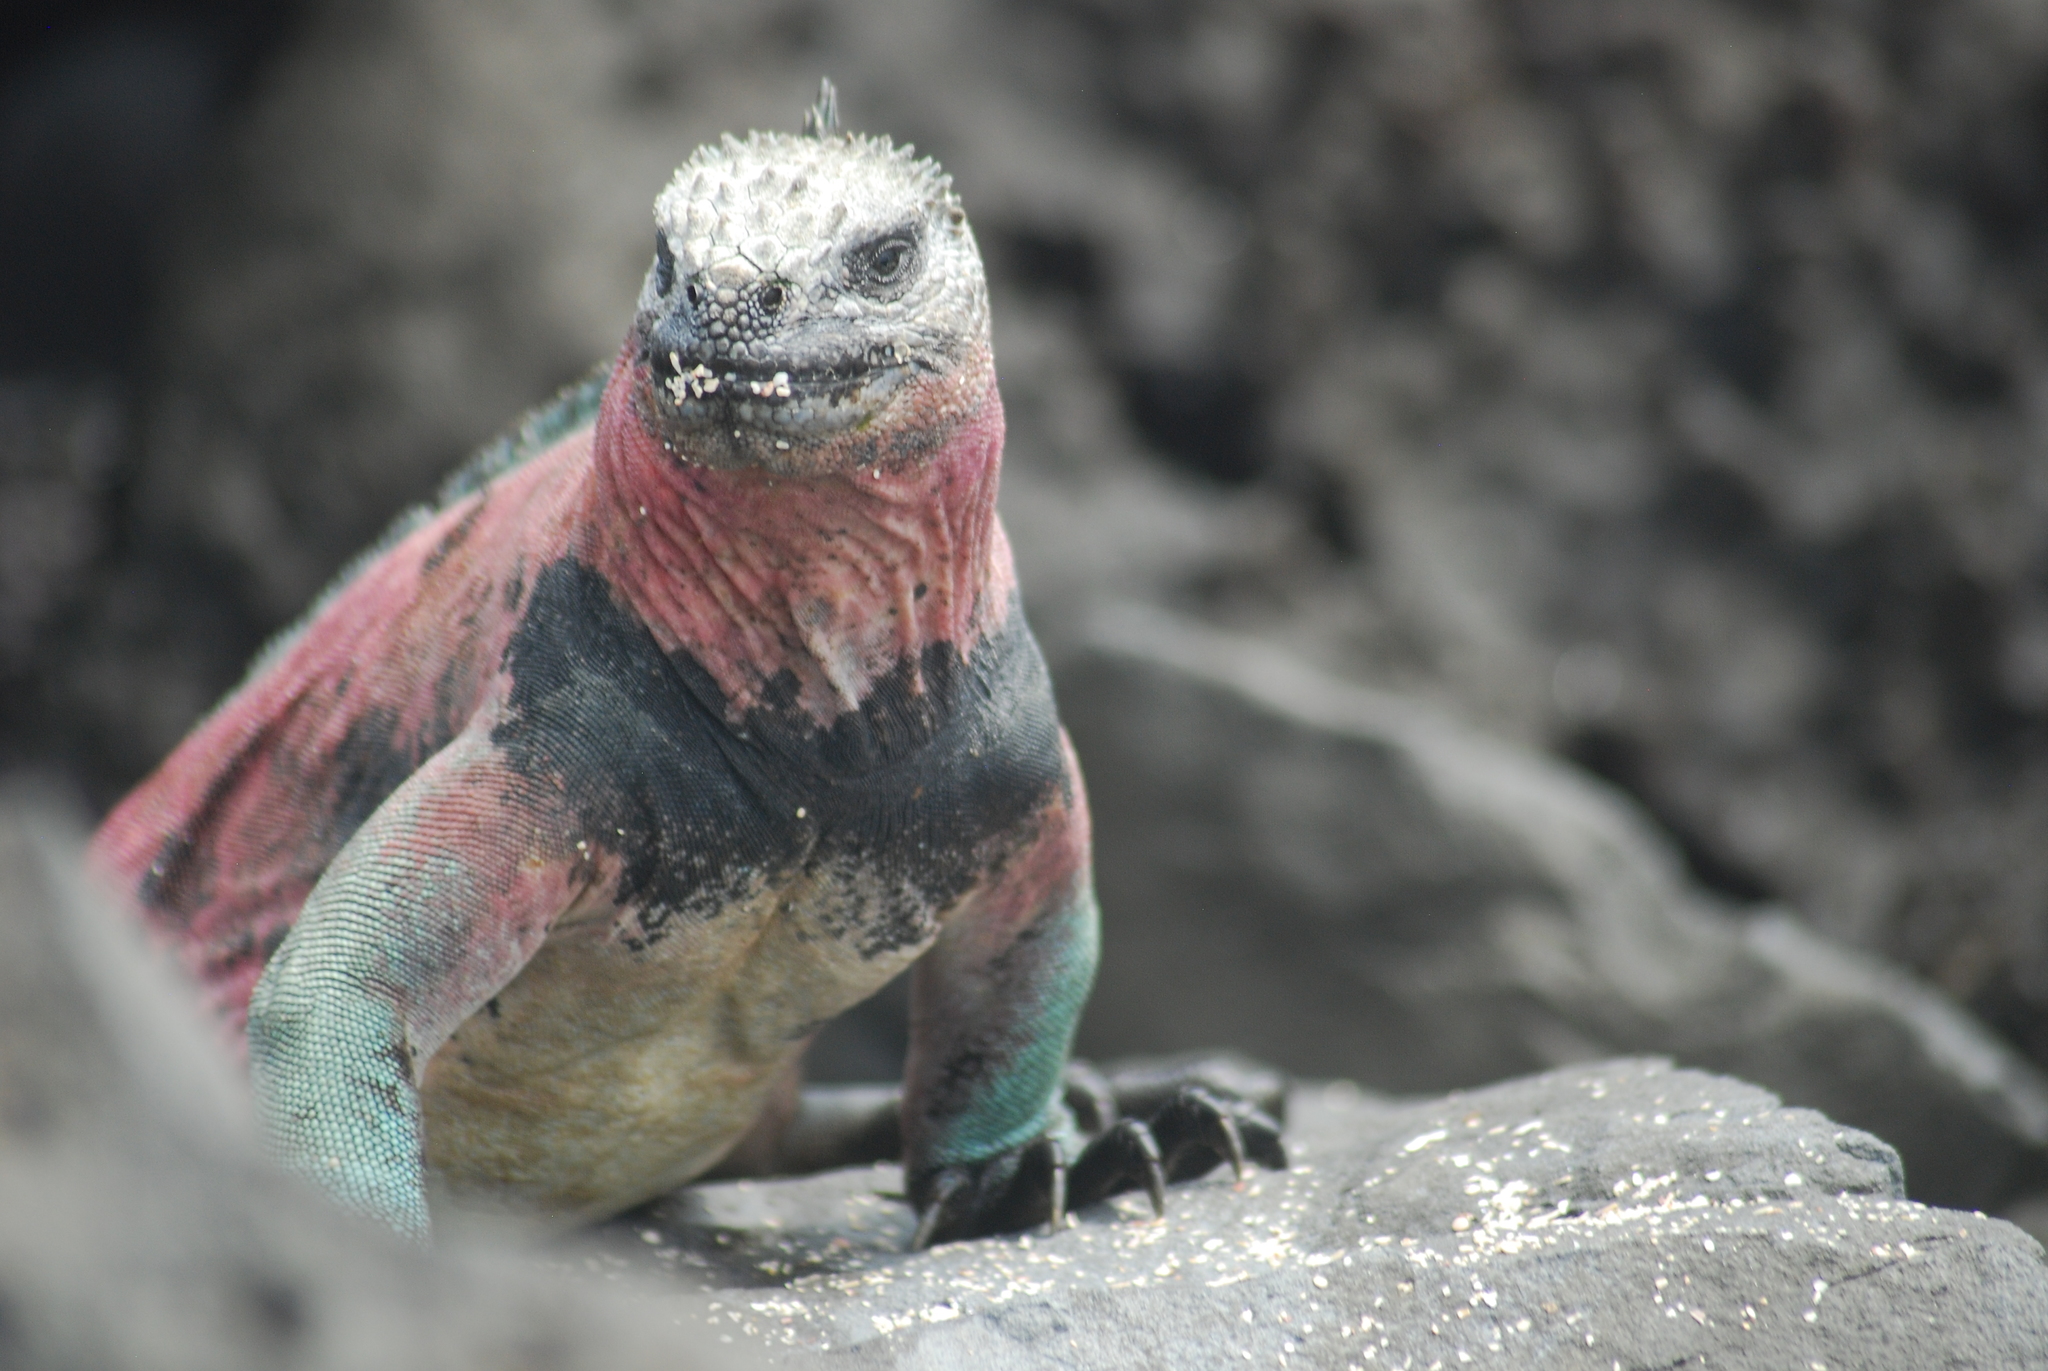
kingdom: Animalia
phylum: Chordata
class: Squamata
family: Iguanidae
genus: Amblyrhynchus
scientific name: Amblyrhynchus cristatus
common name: Marine iguana
